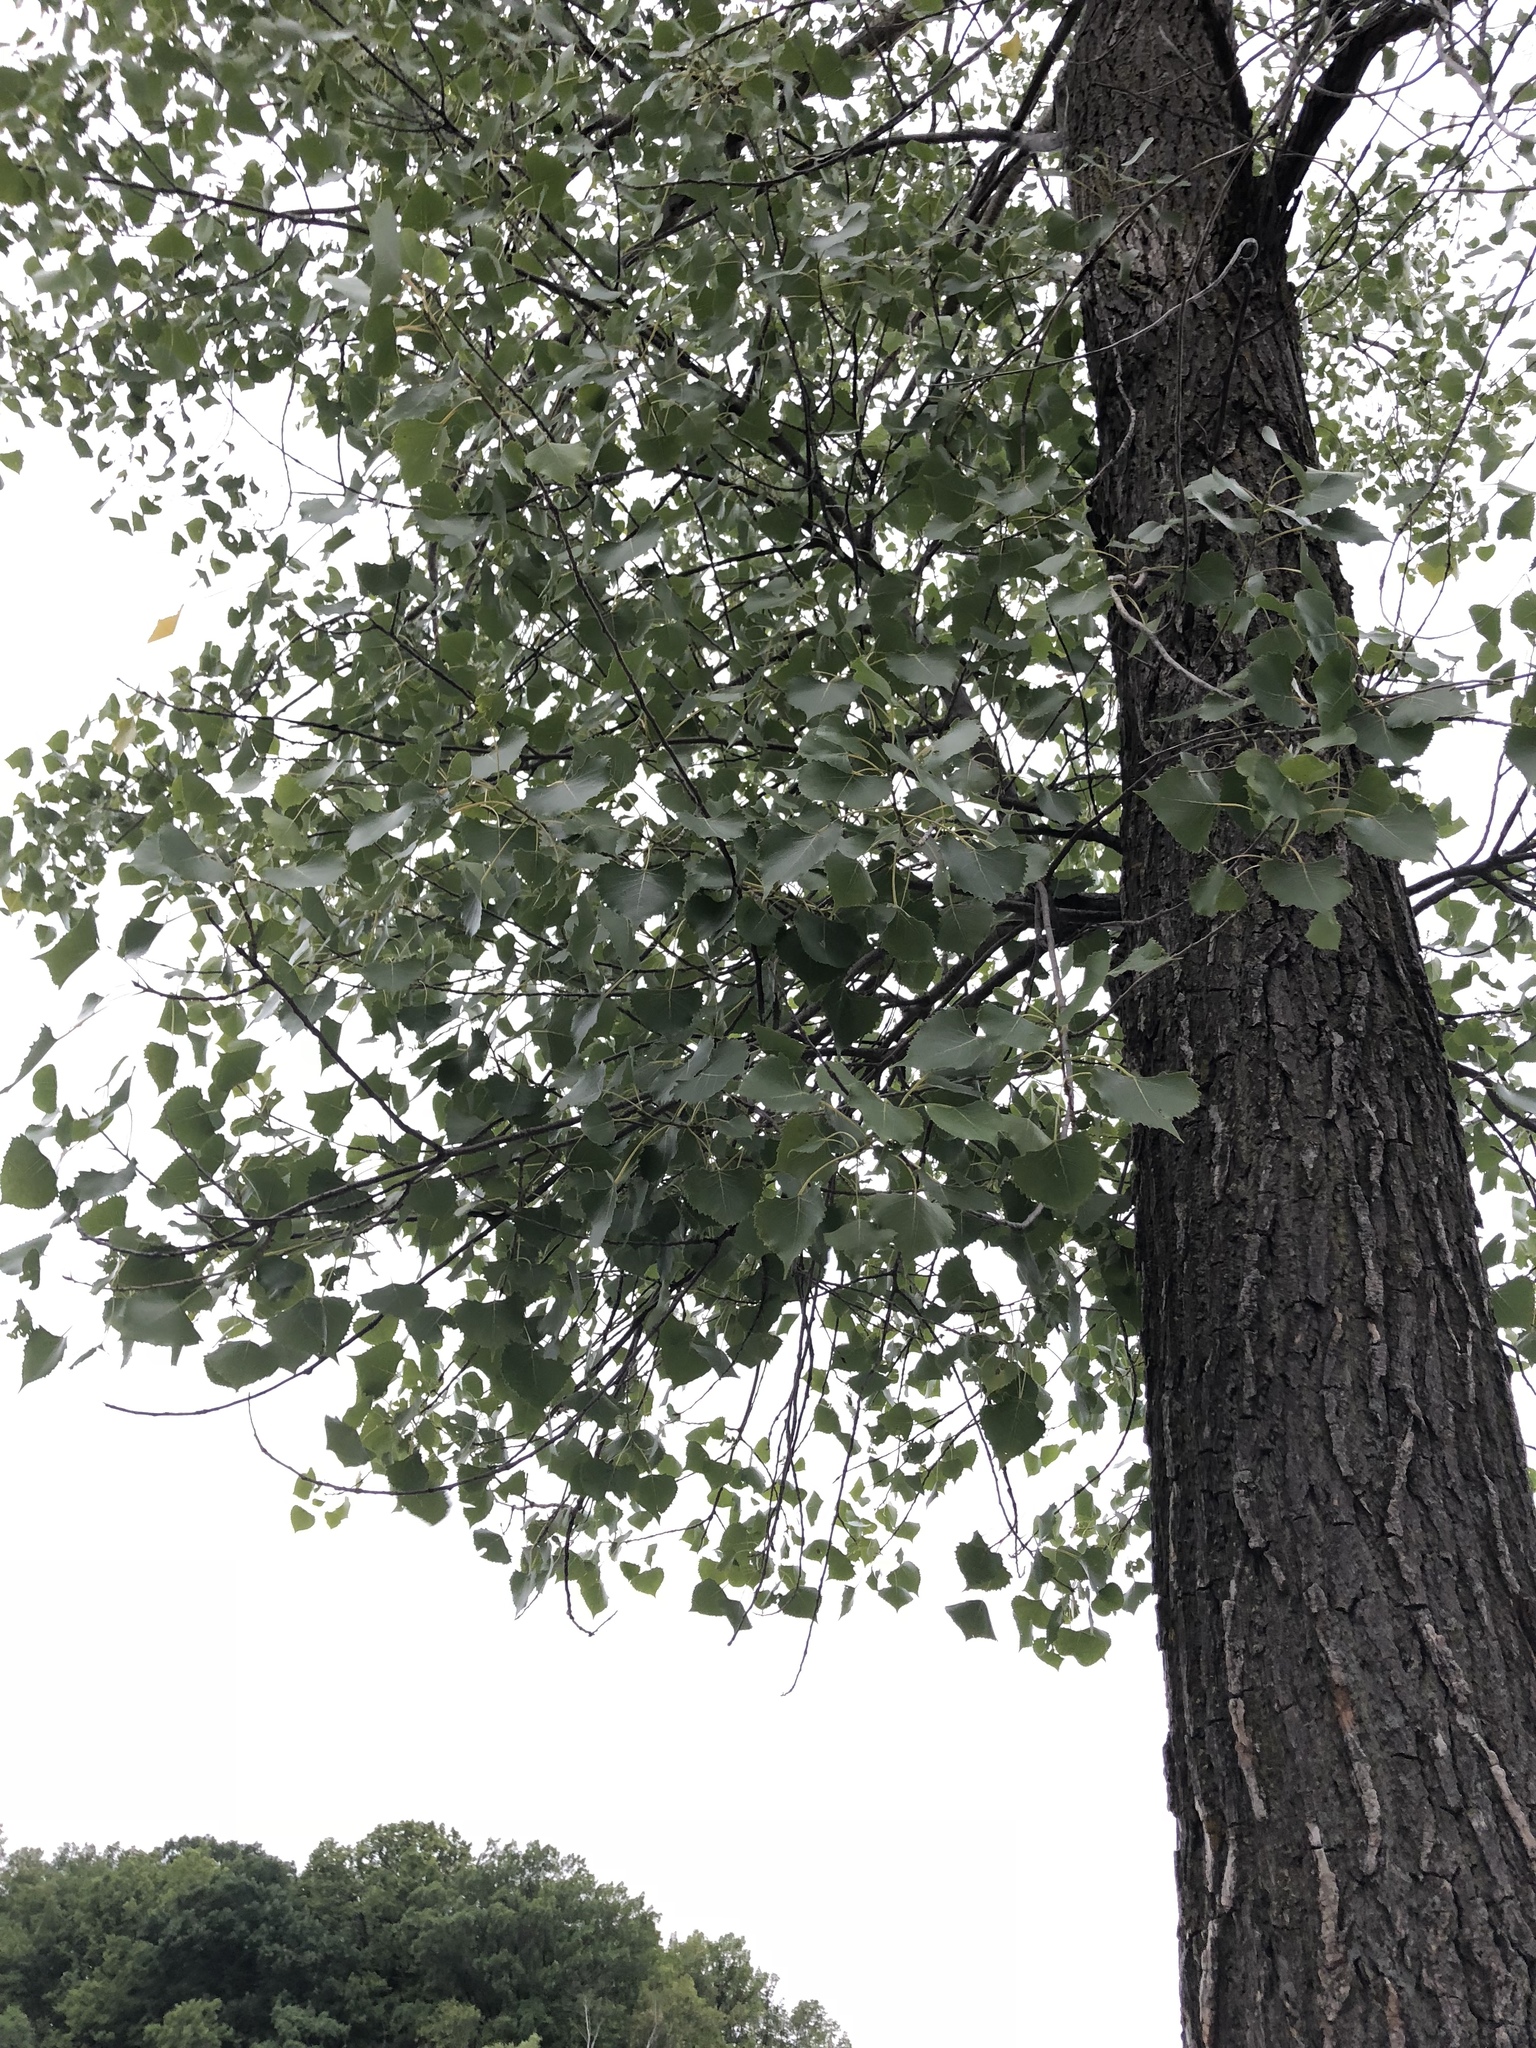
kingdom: Plantae
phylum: Tracheophyta
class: Magnoliopsida
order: Malpighiales
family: Salicaceae
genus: Populus
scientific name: Populus deltoides
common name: Eastern cottonwood
